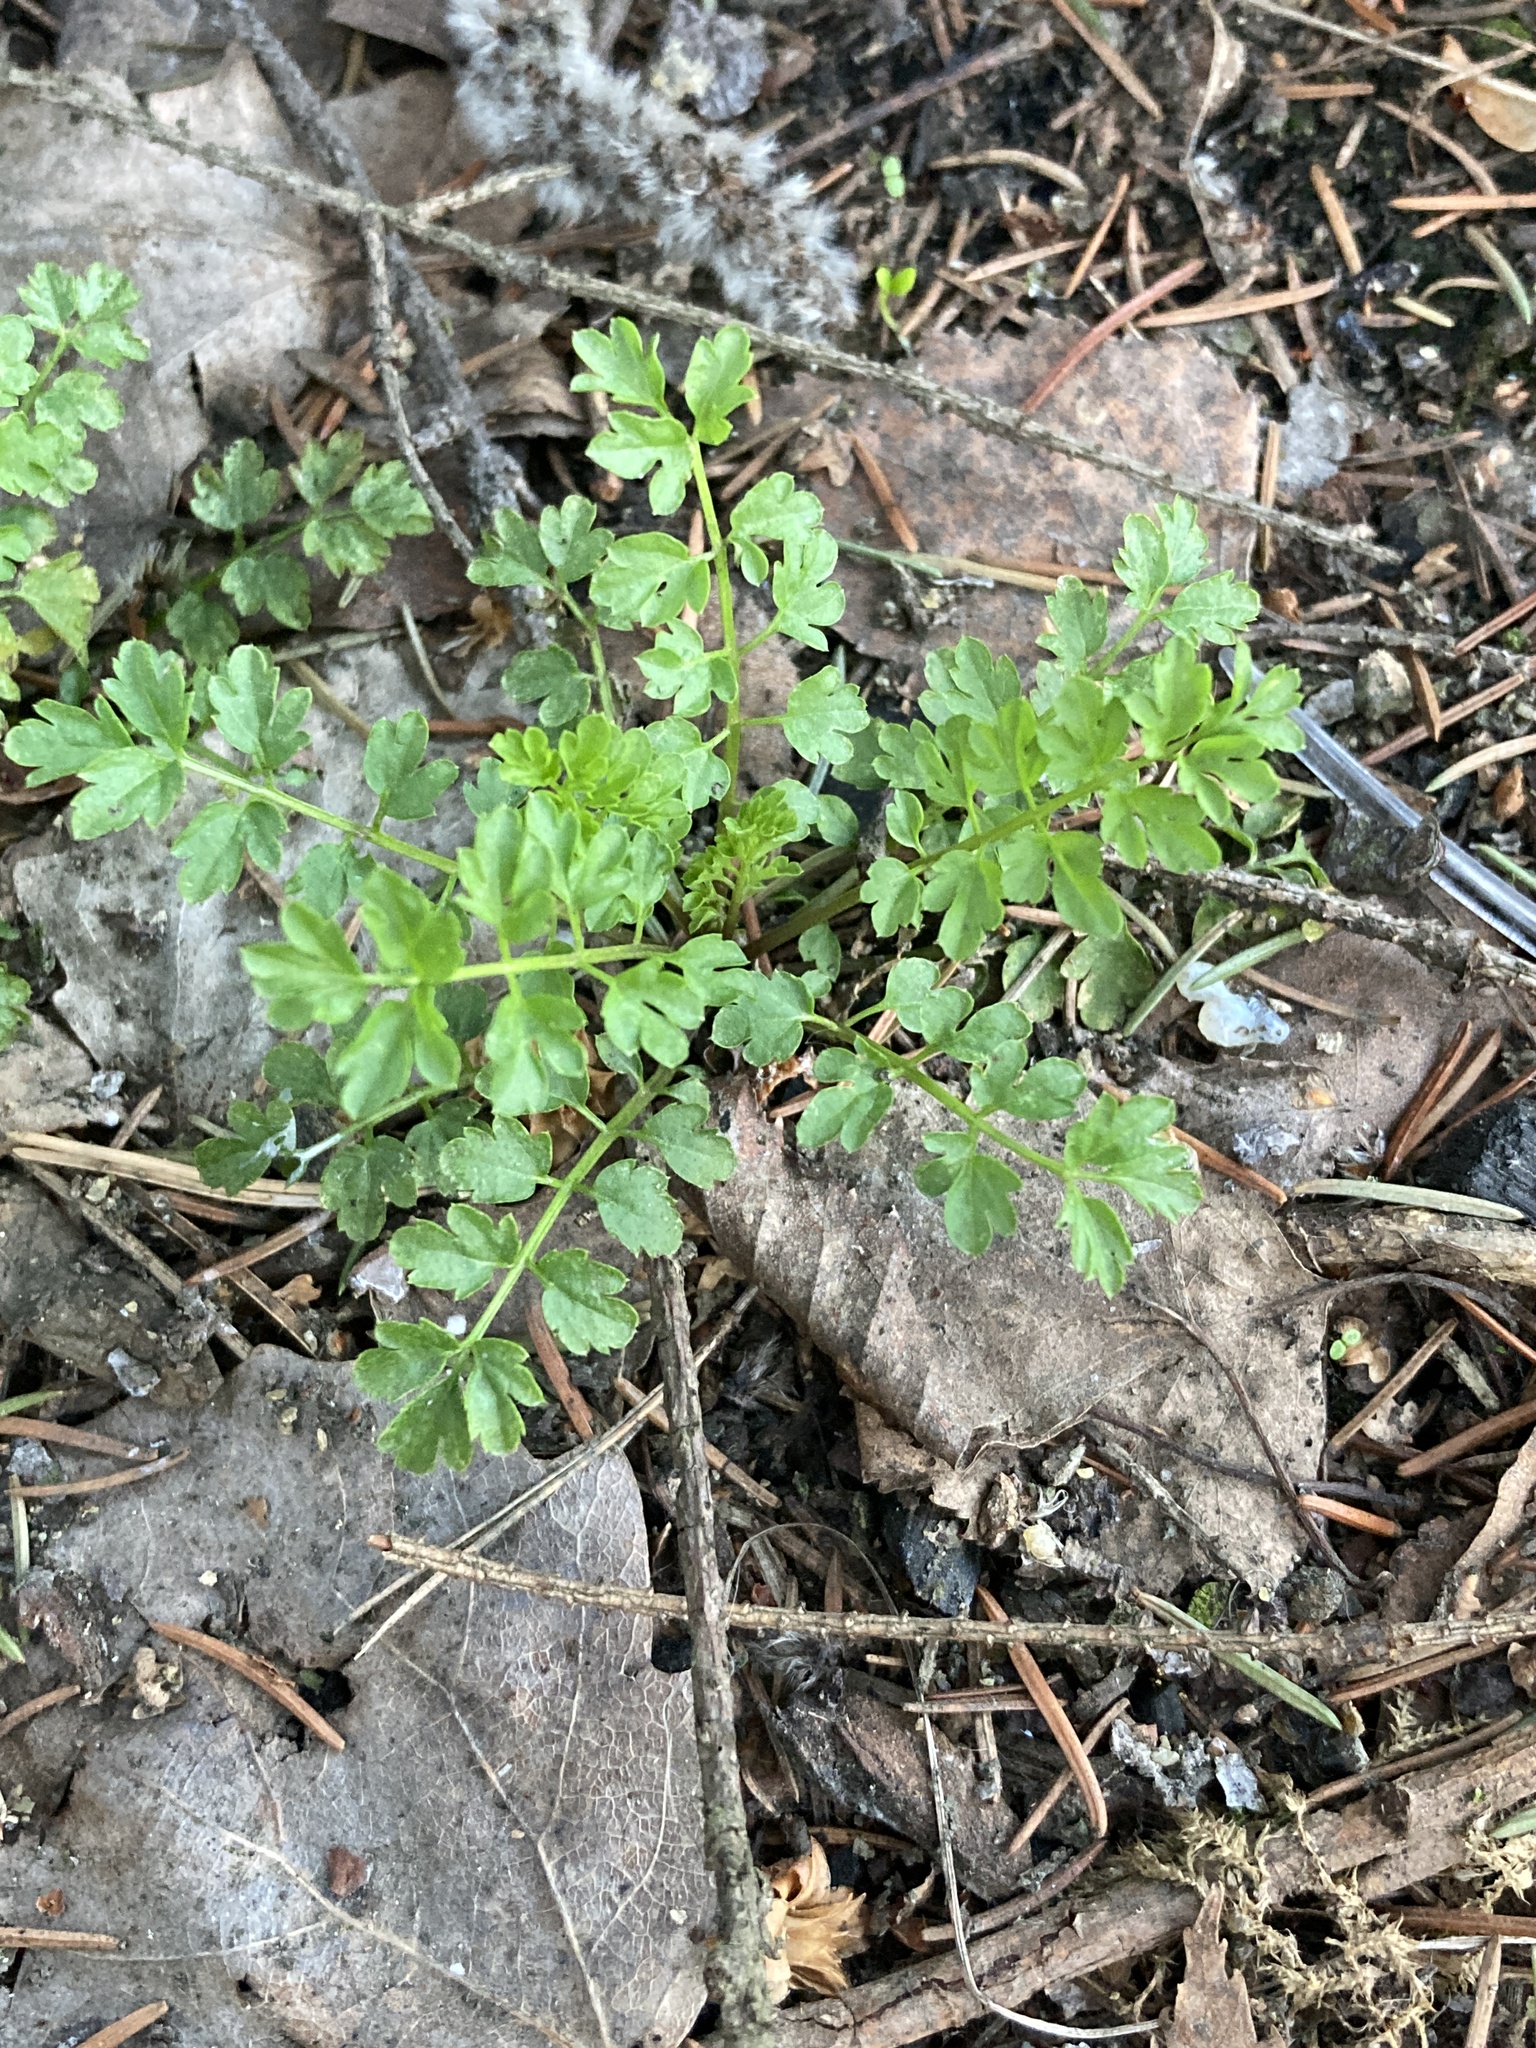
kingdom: Plantae
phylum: Tracheophyta
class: Magnoliopsida
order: Brassicales
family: Brassicaceae
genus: Cardamine
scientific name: Cardamine impatiens
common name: Narrow-leaved bitter-cress
